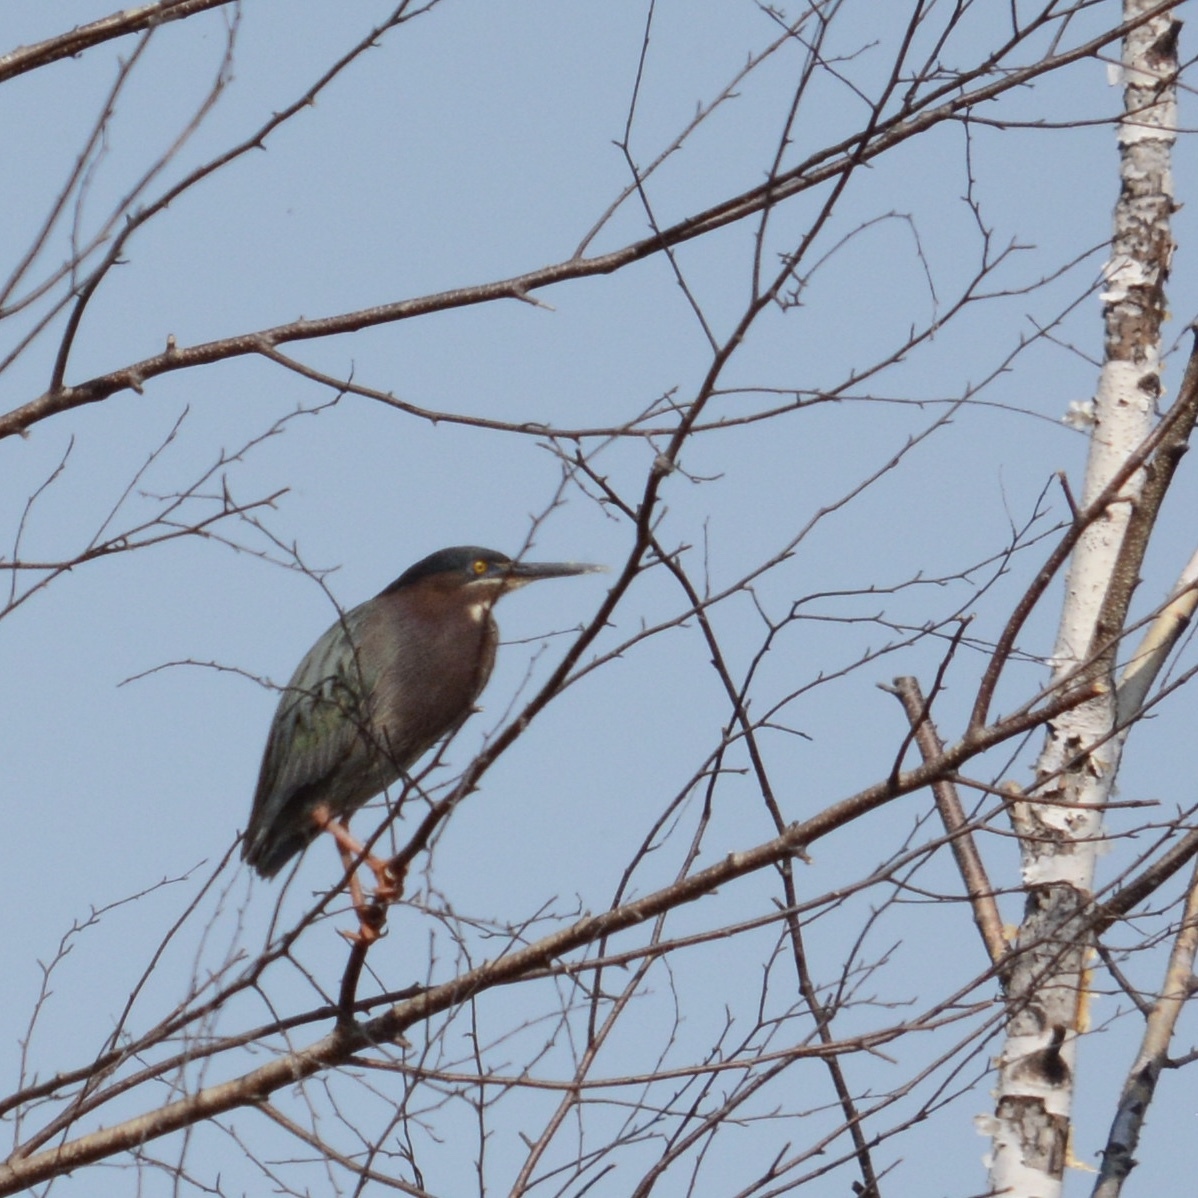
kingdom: Animalia
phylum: Chordata
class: Aves
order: Pelecaniformes
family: Ardeidae
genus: Butorides
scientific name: Butorides virescens
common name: Green heron
